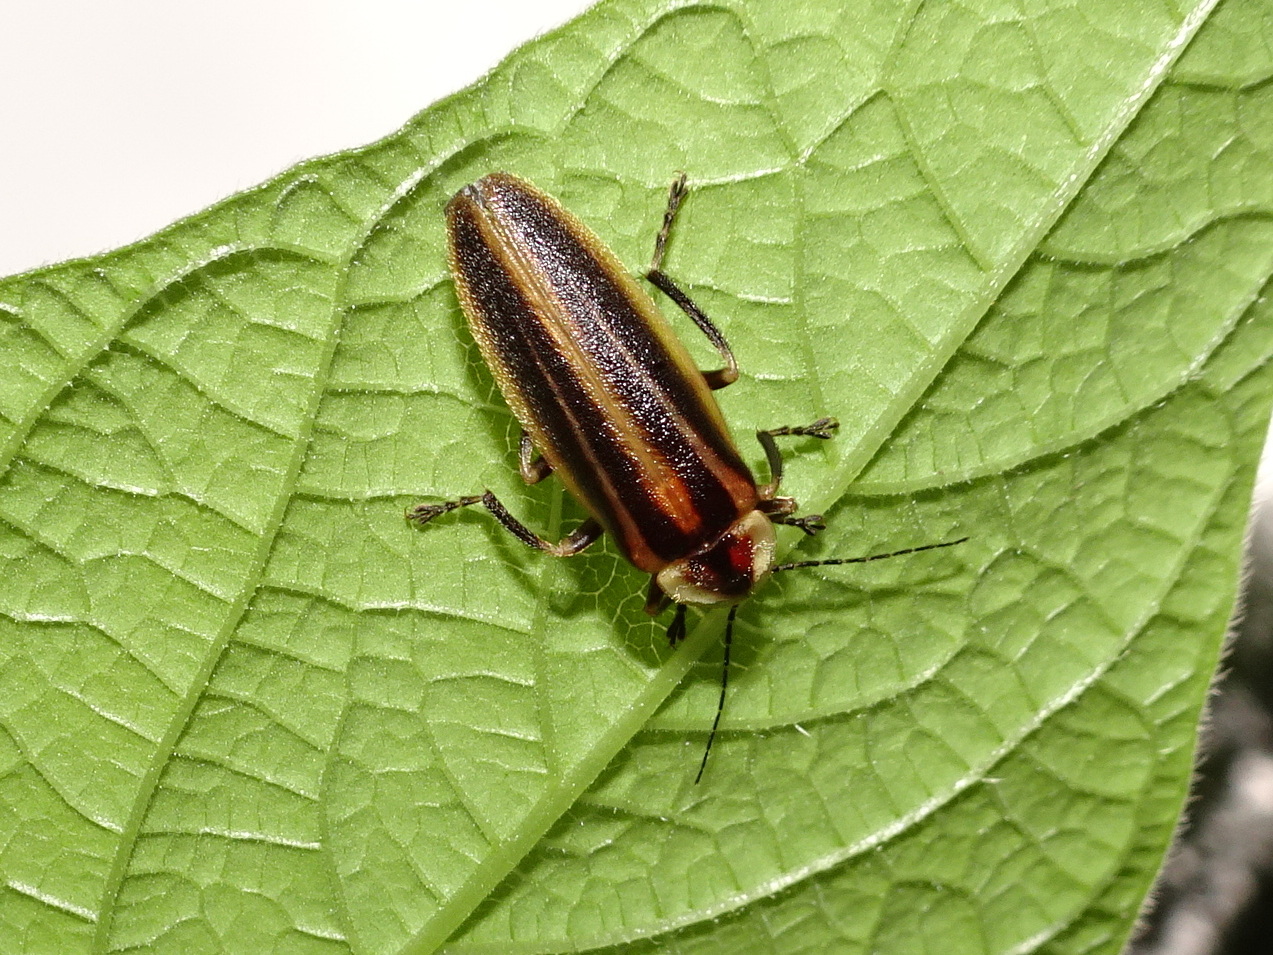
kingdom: Animalia
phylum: Arthropoda
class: Insecta
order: Coleoptera
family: Lampyridae
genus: Photuris
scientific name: Photuris
